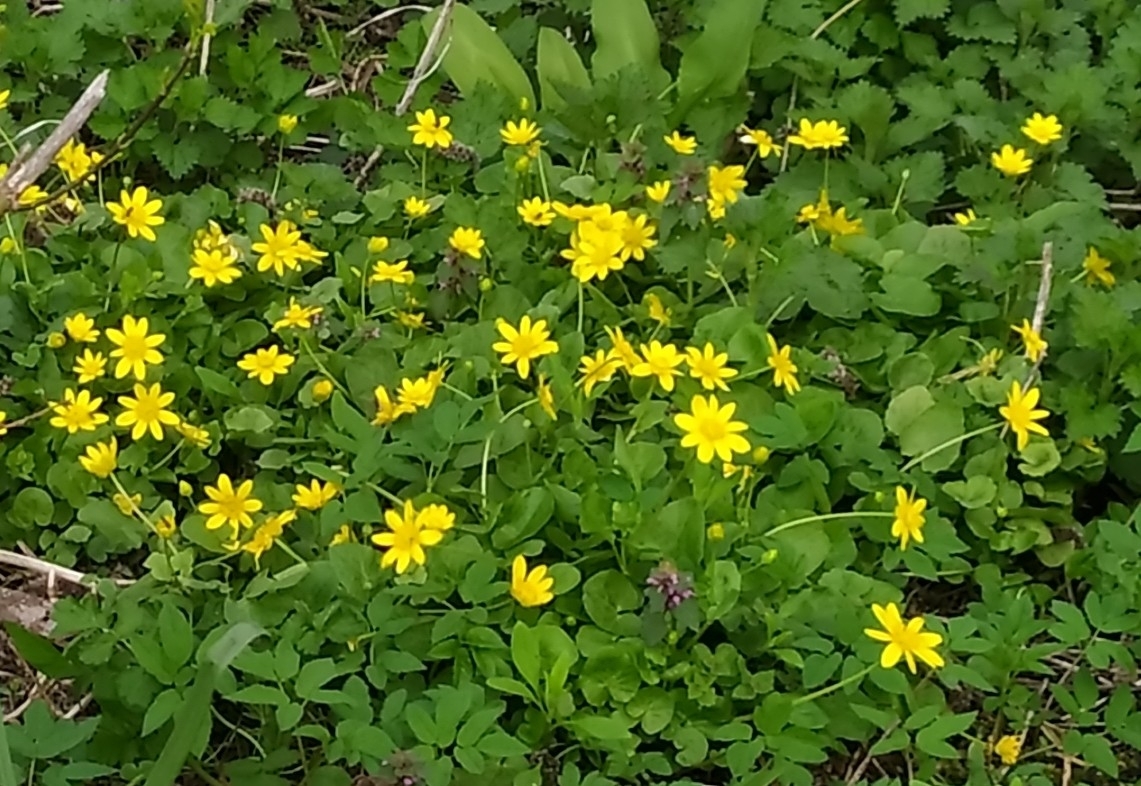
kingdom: Plantae
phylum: Tracheophyta
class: Magnoliopsida
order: Ranunculales
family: Ranunculaceae
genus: Ficaria
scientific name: Ficaria verna
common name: Lesser celandine
